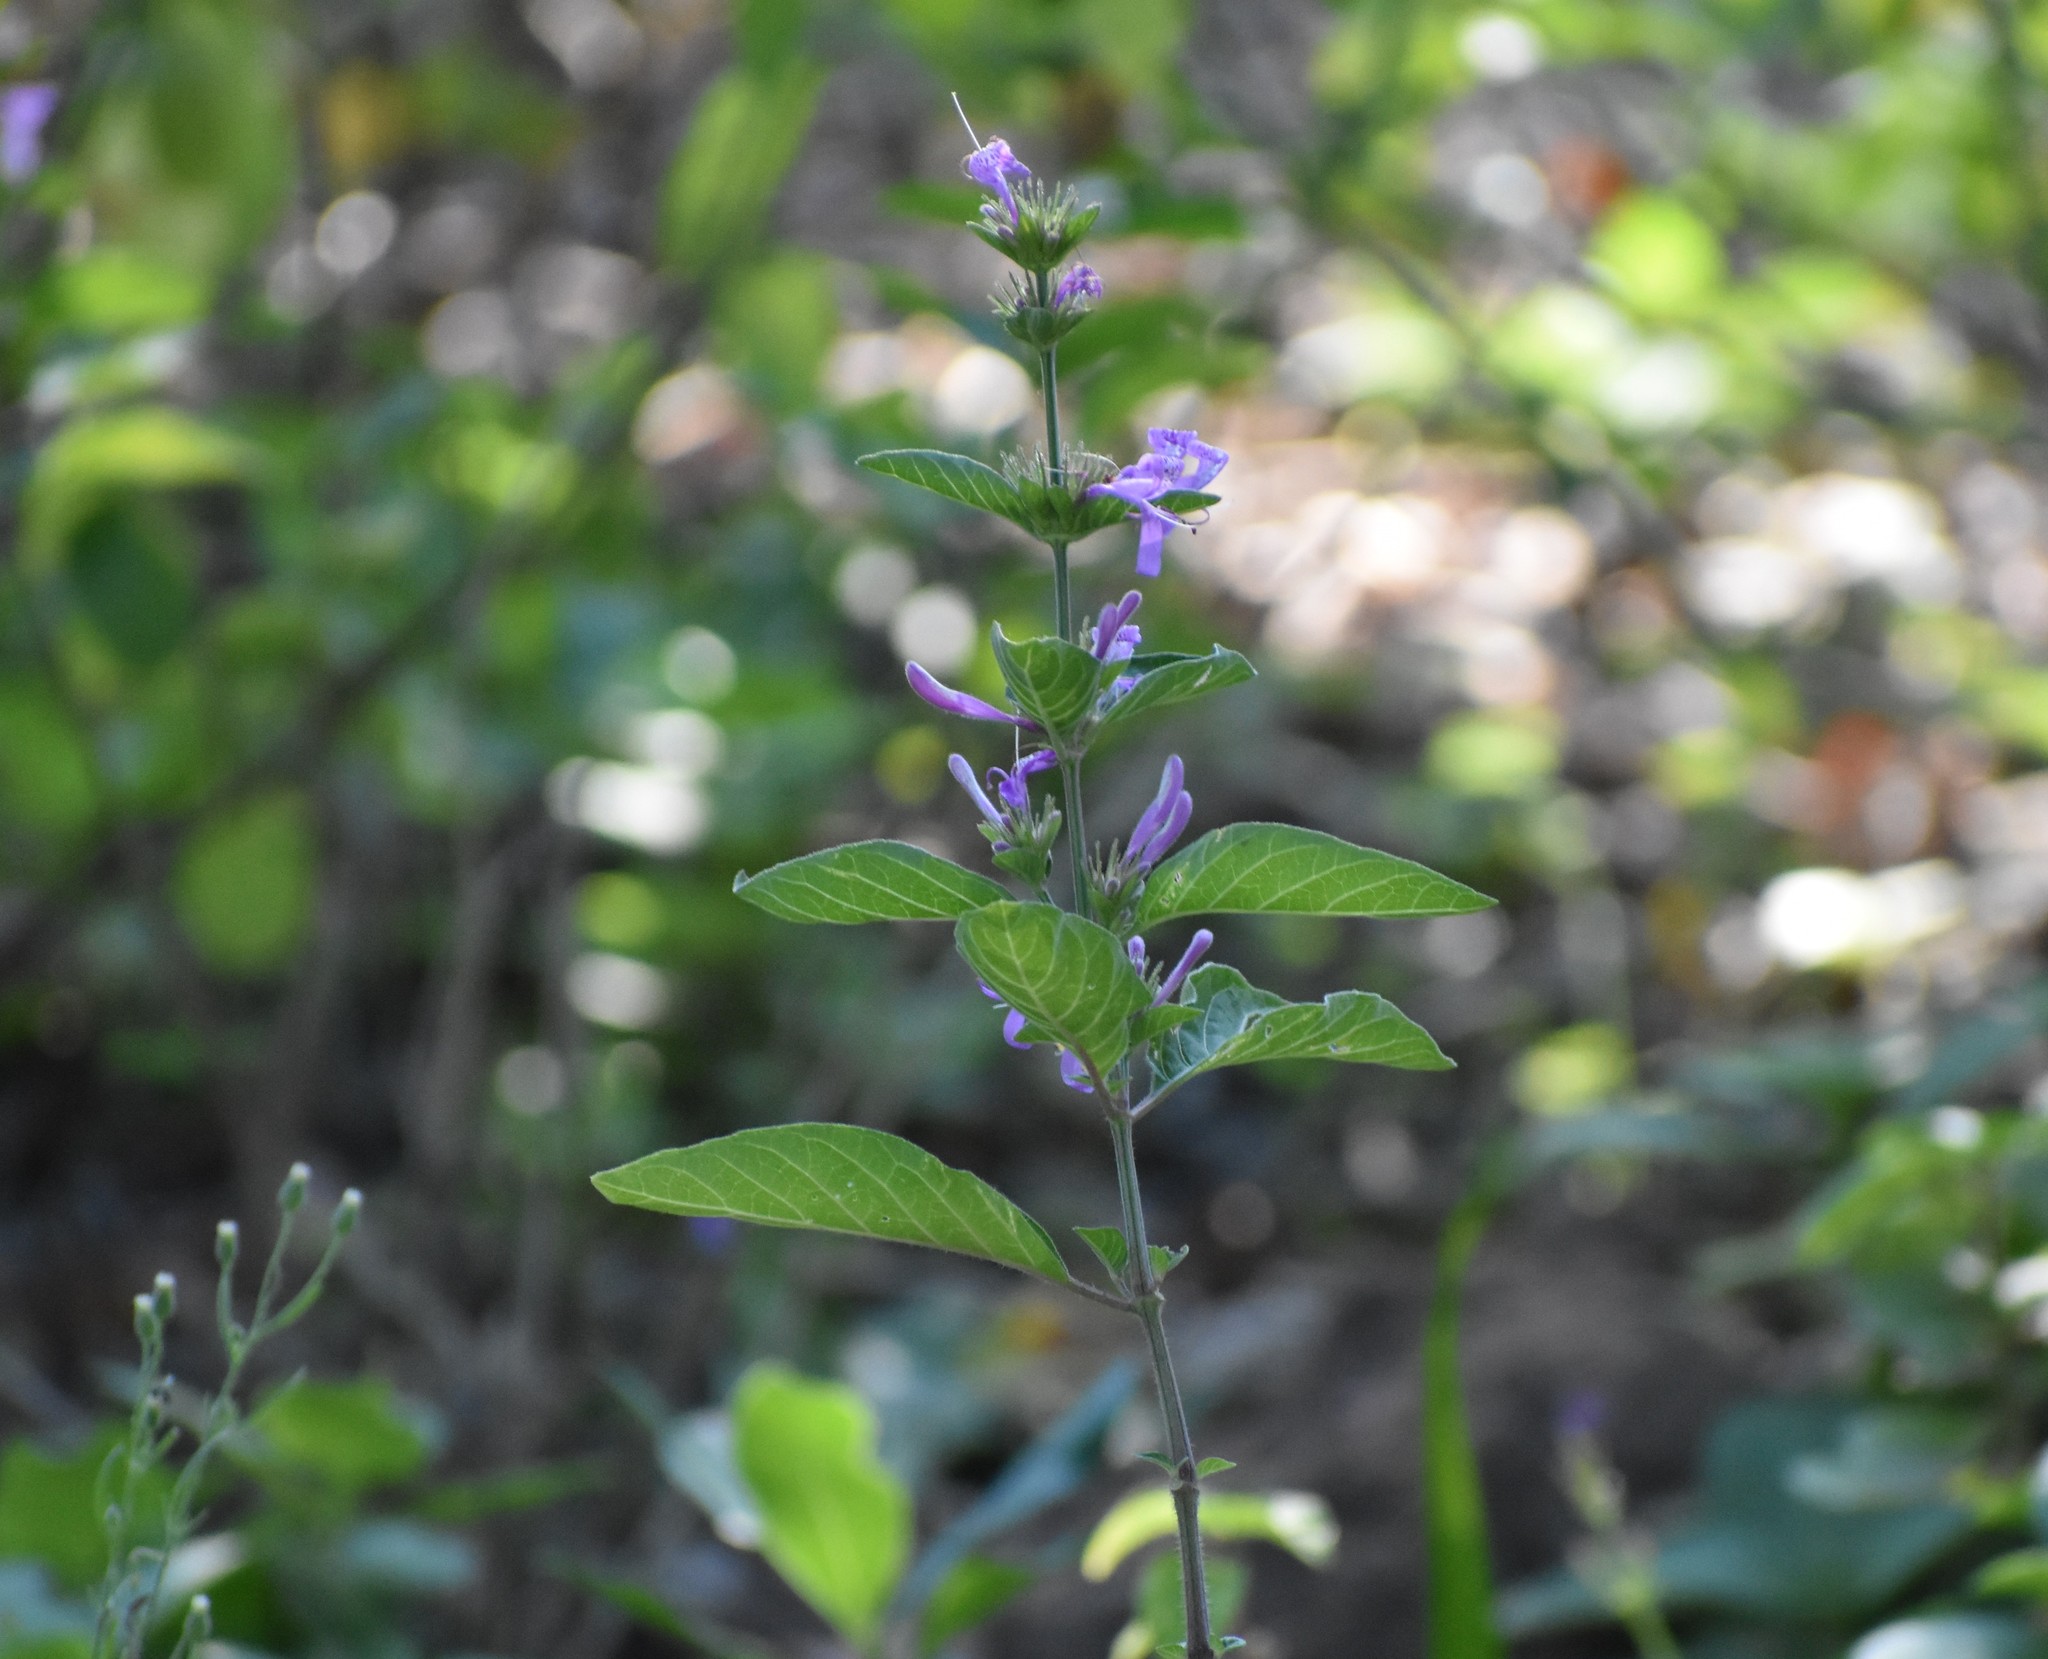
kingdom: Plantae
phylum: Tracheophyta
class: Magnoliopsida
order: Lamiales
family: Acanthaceae
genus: Hypoestes
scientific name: Hypoestes forskaolii
